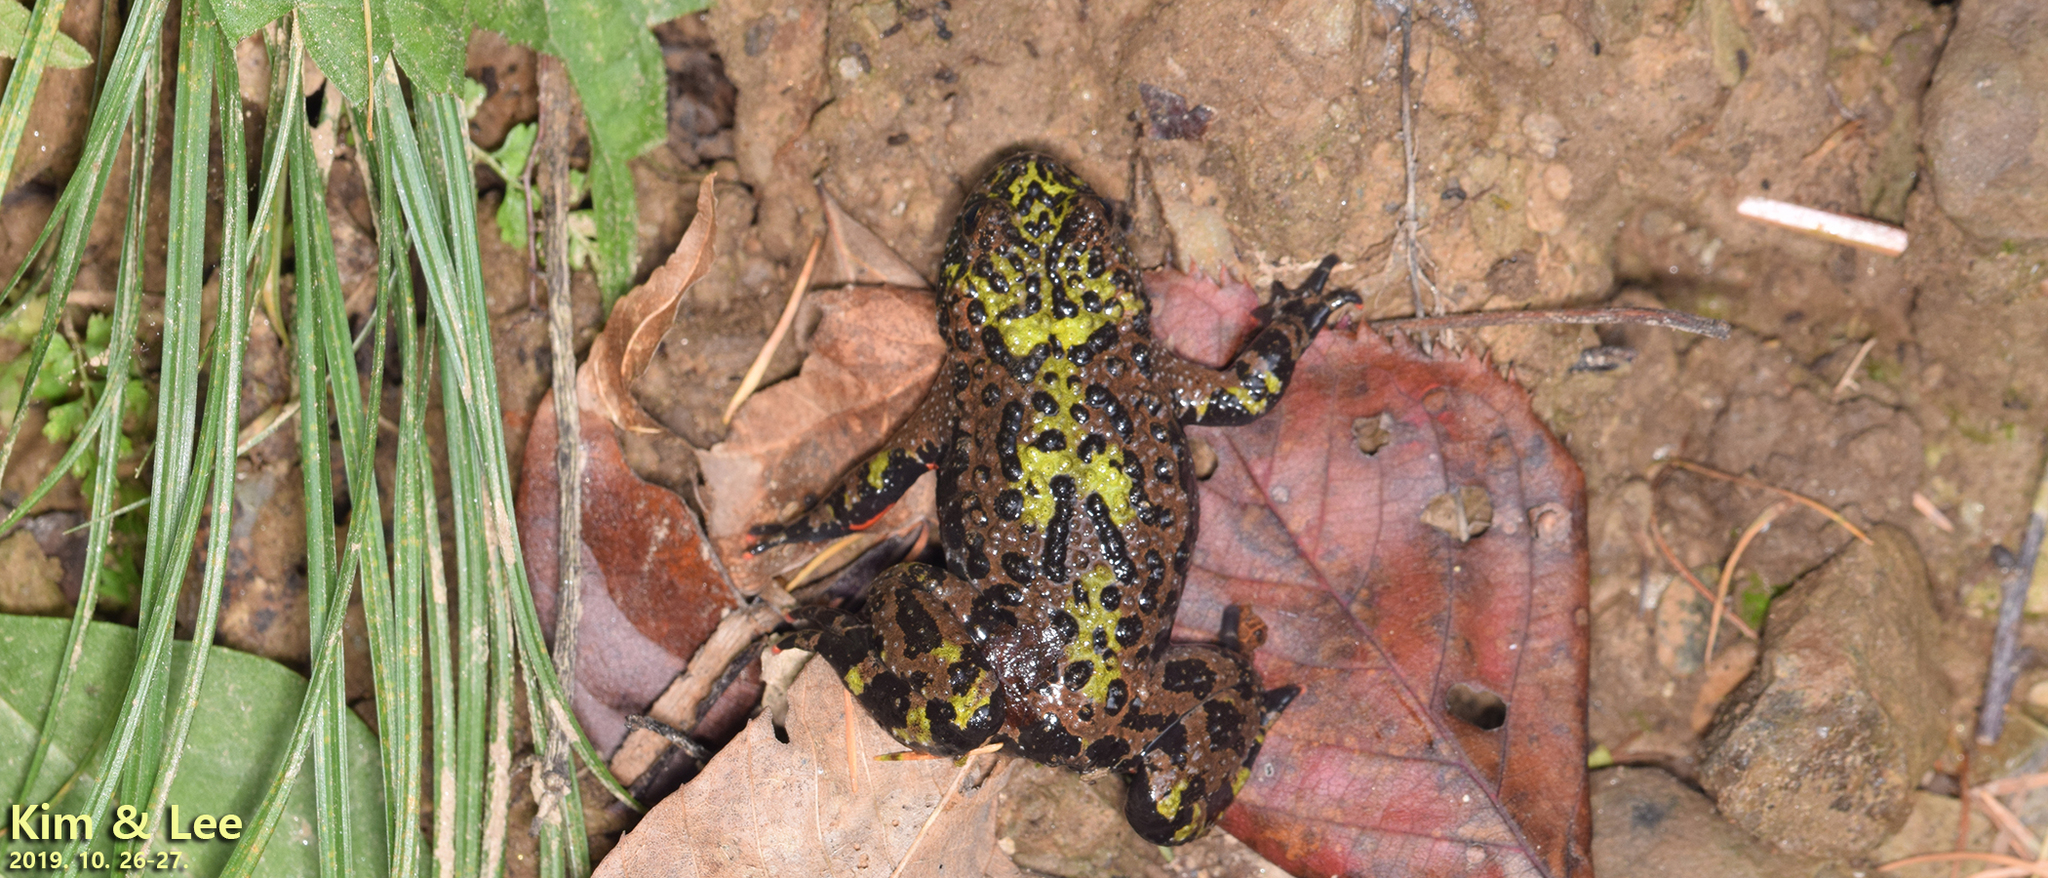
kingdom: Animalia
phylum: Chordata
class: Amphibia
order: Anura
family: Bombinatoridae
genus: Bombina
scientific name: Bombina orientalis
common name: Oriental firebelly toad
